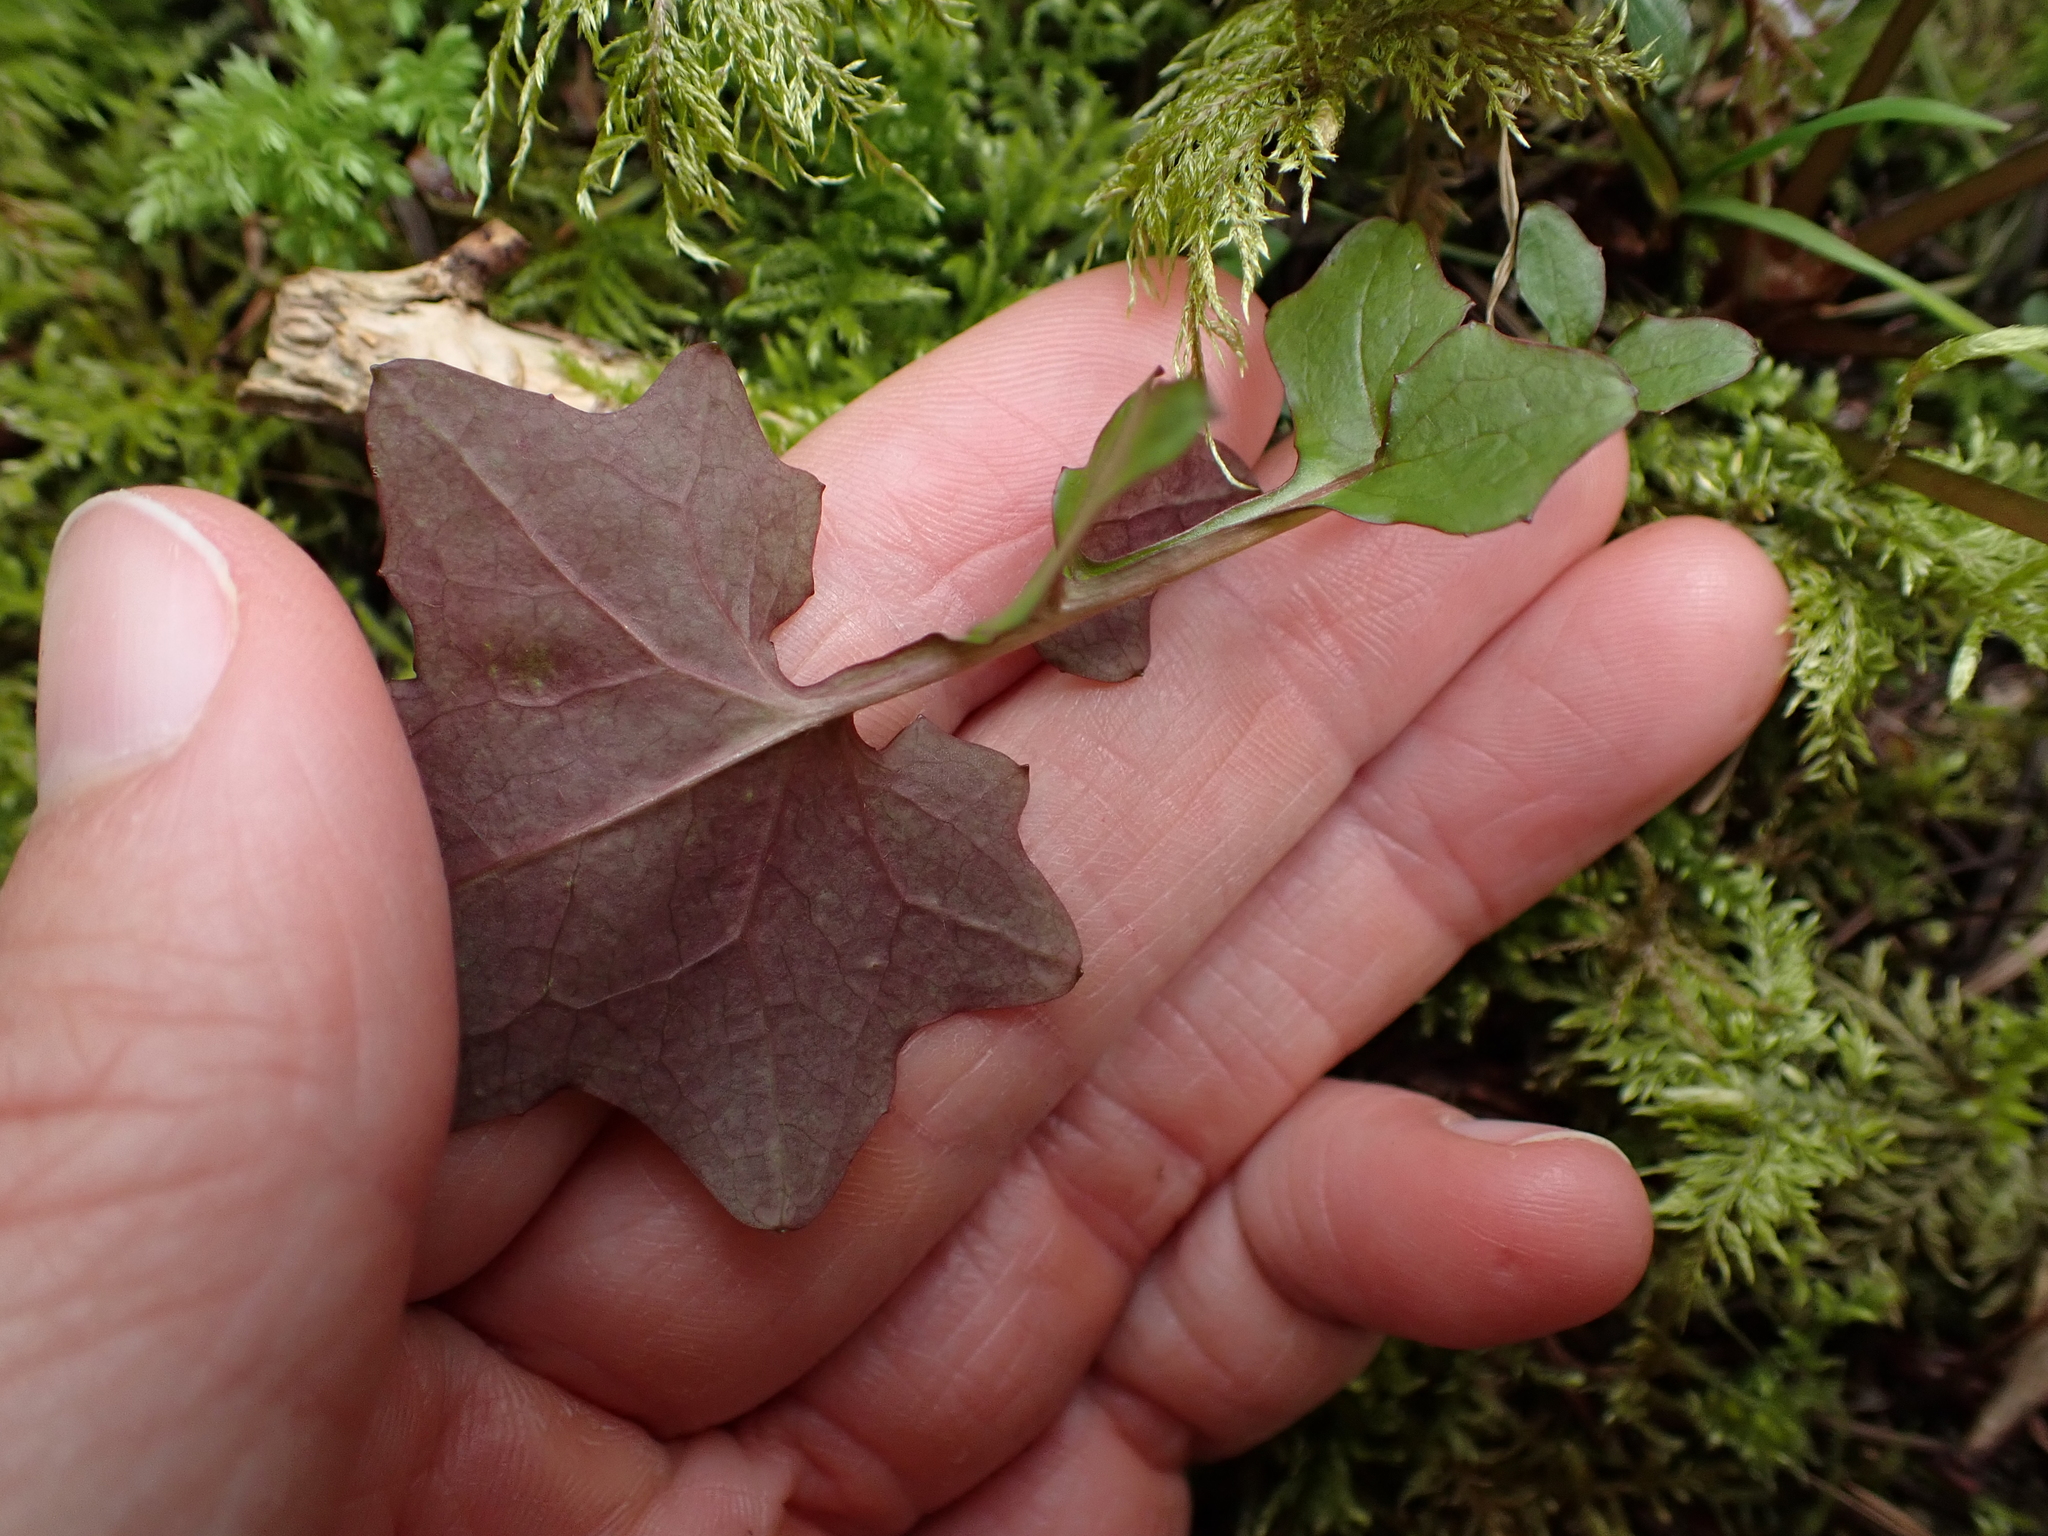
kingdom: Plantae
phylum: Tracheophyta
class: Magnoliopsida
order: Asterales
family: Asteraceae
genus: Mycelis
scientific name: Mycelis muralis
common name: Wall lettuce
